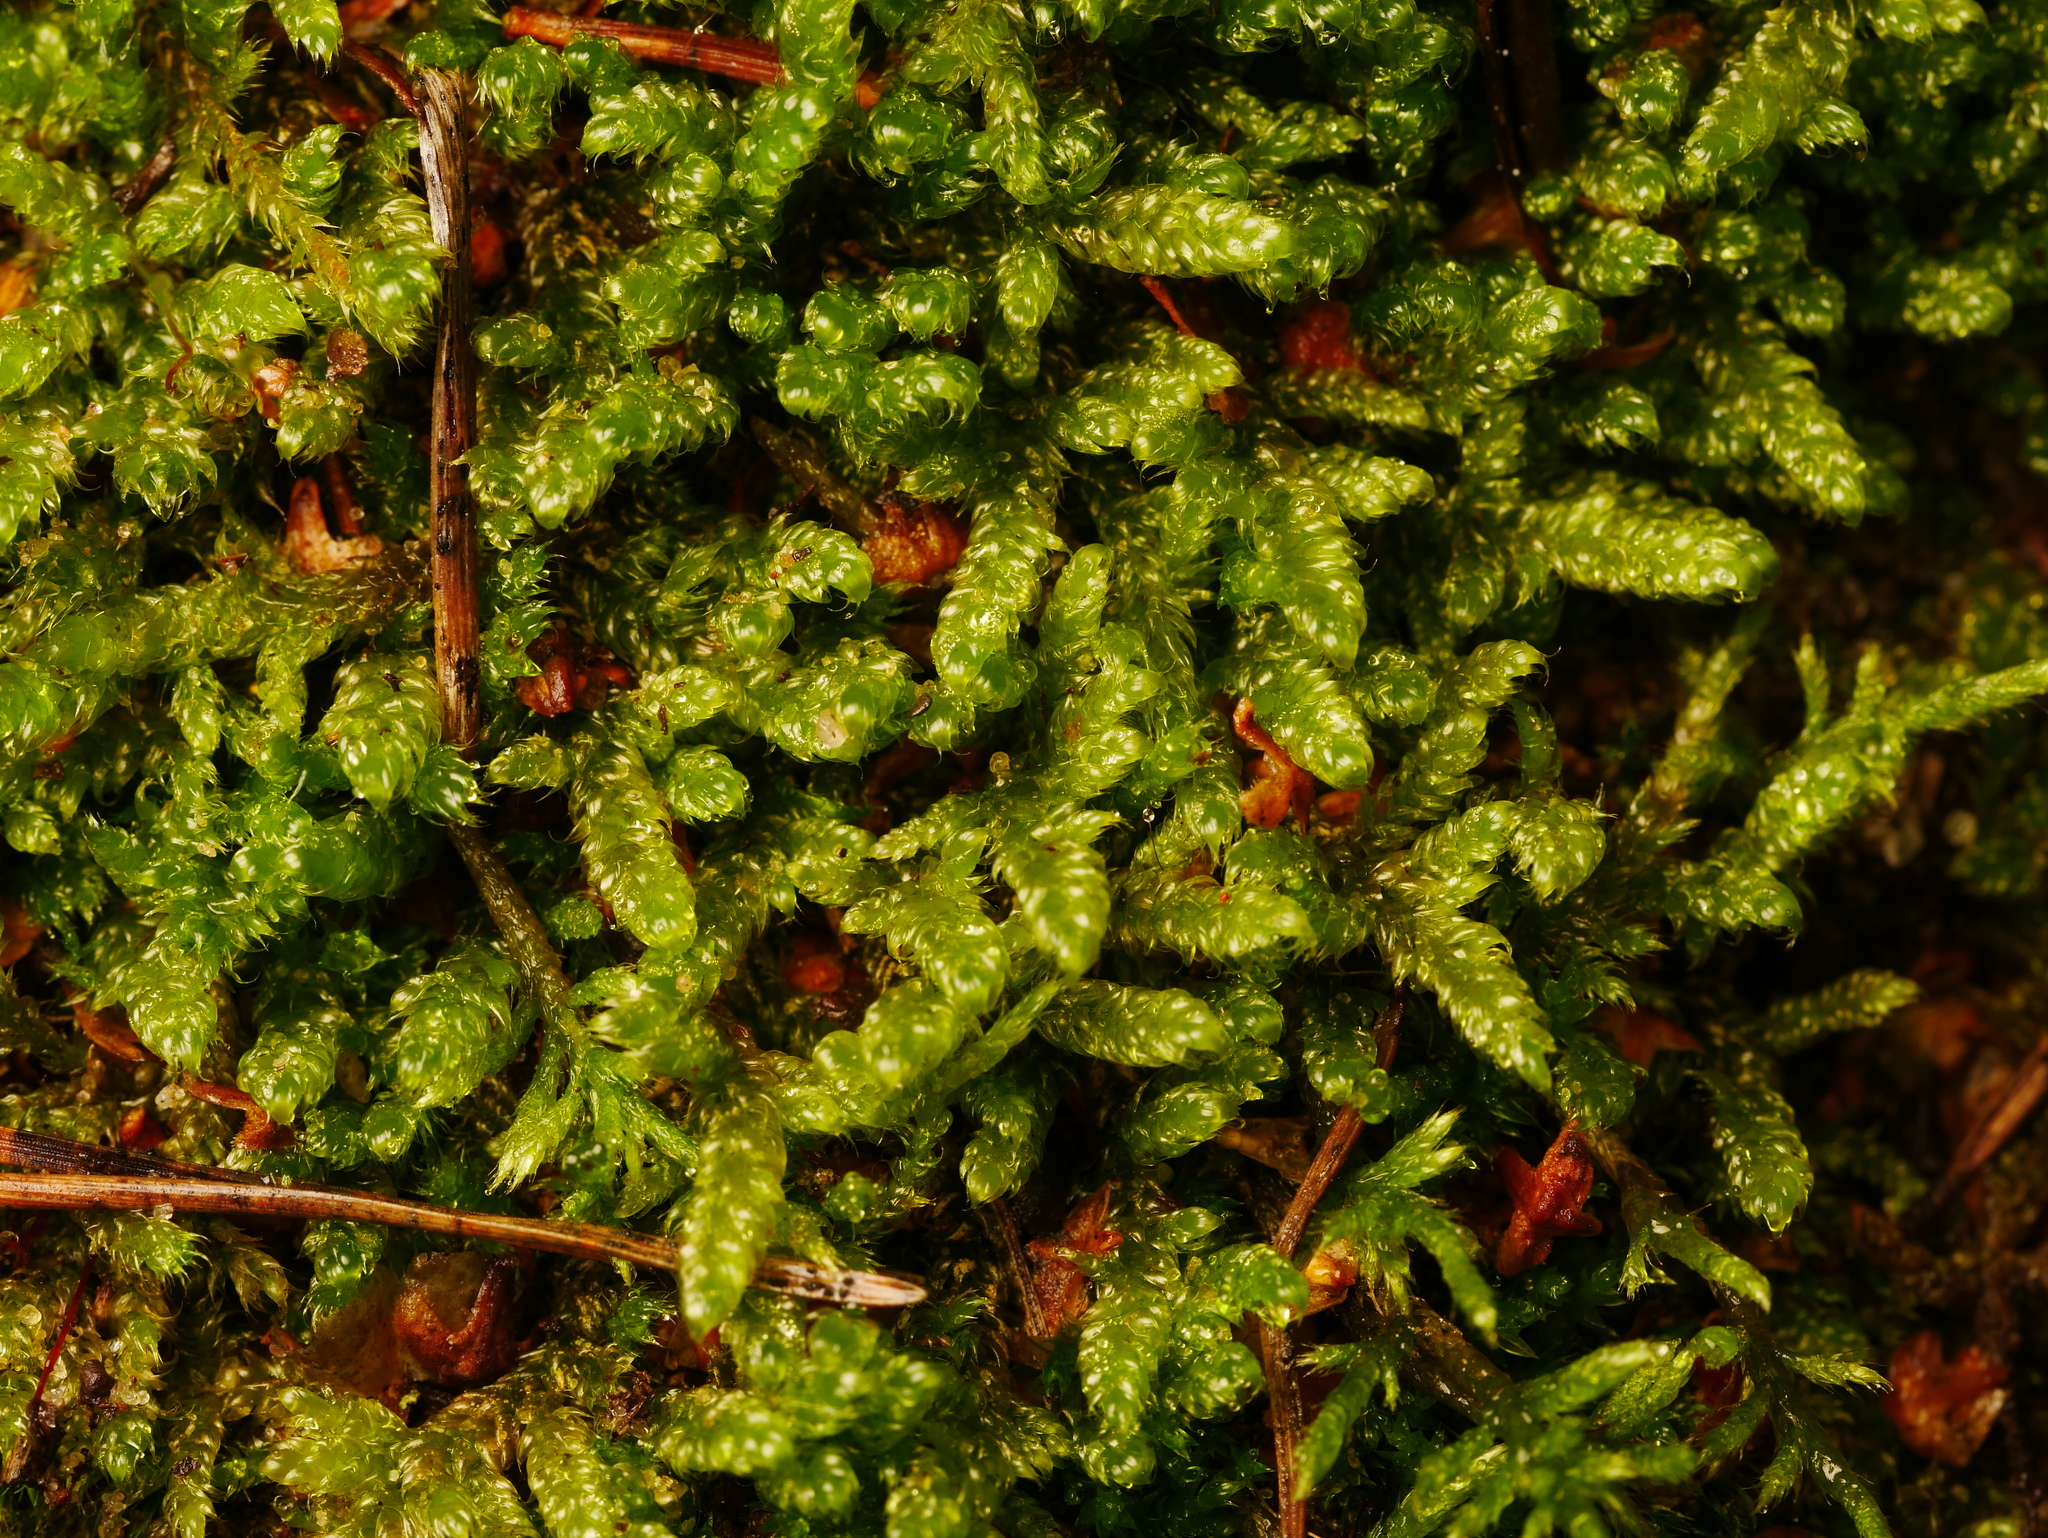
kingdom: Plantae
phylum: Bryophyta
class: Bryopsida
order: Hypnales
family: Hypnaceae
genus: Hypnum
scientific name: Hypnum cupressiforme
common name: Cypress-leaved plait-moss
